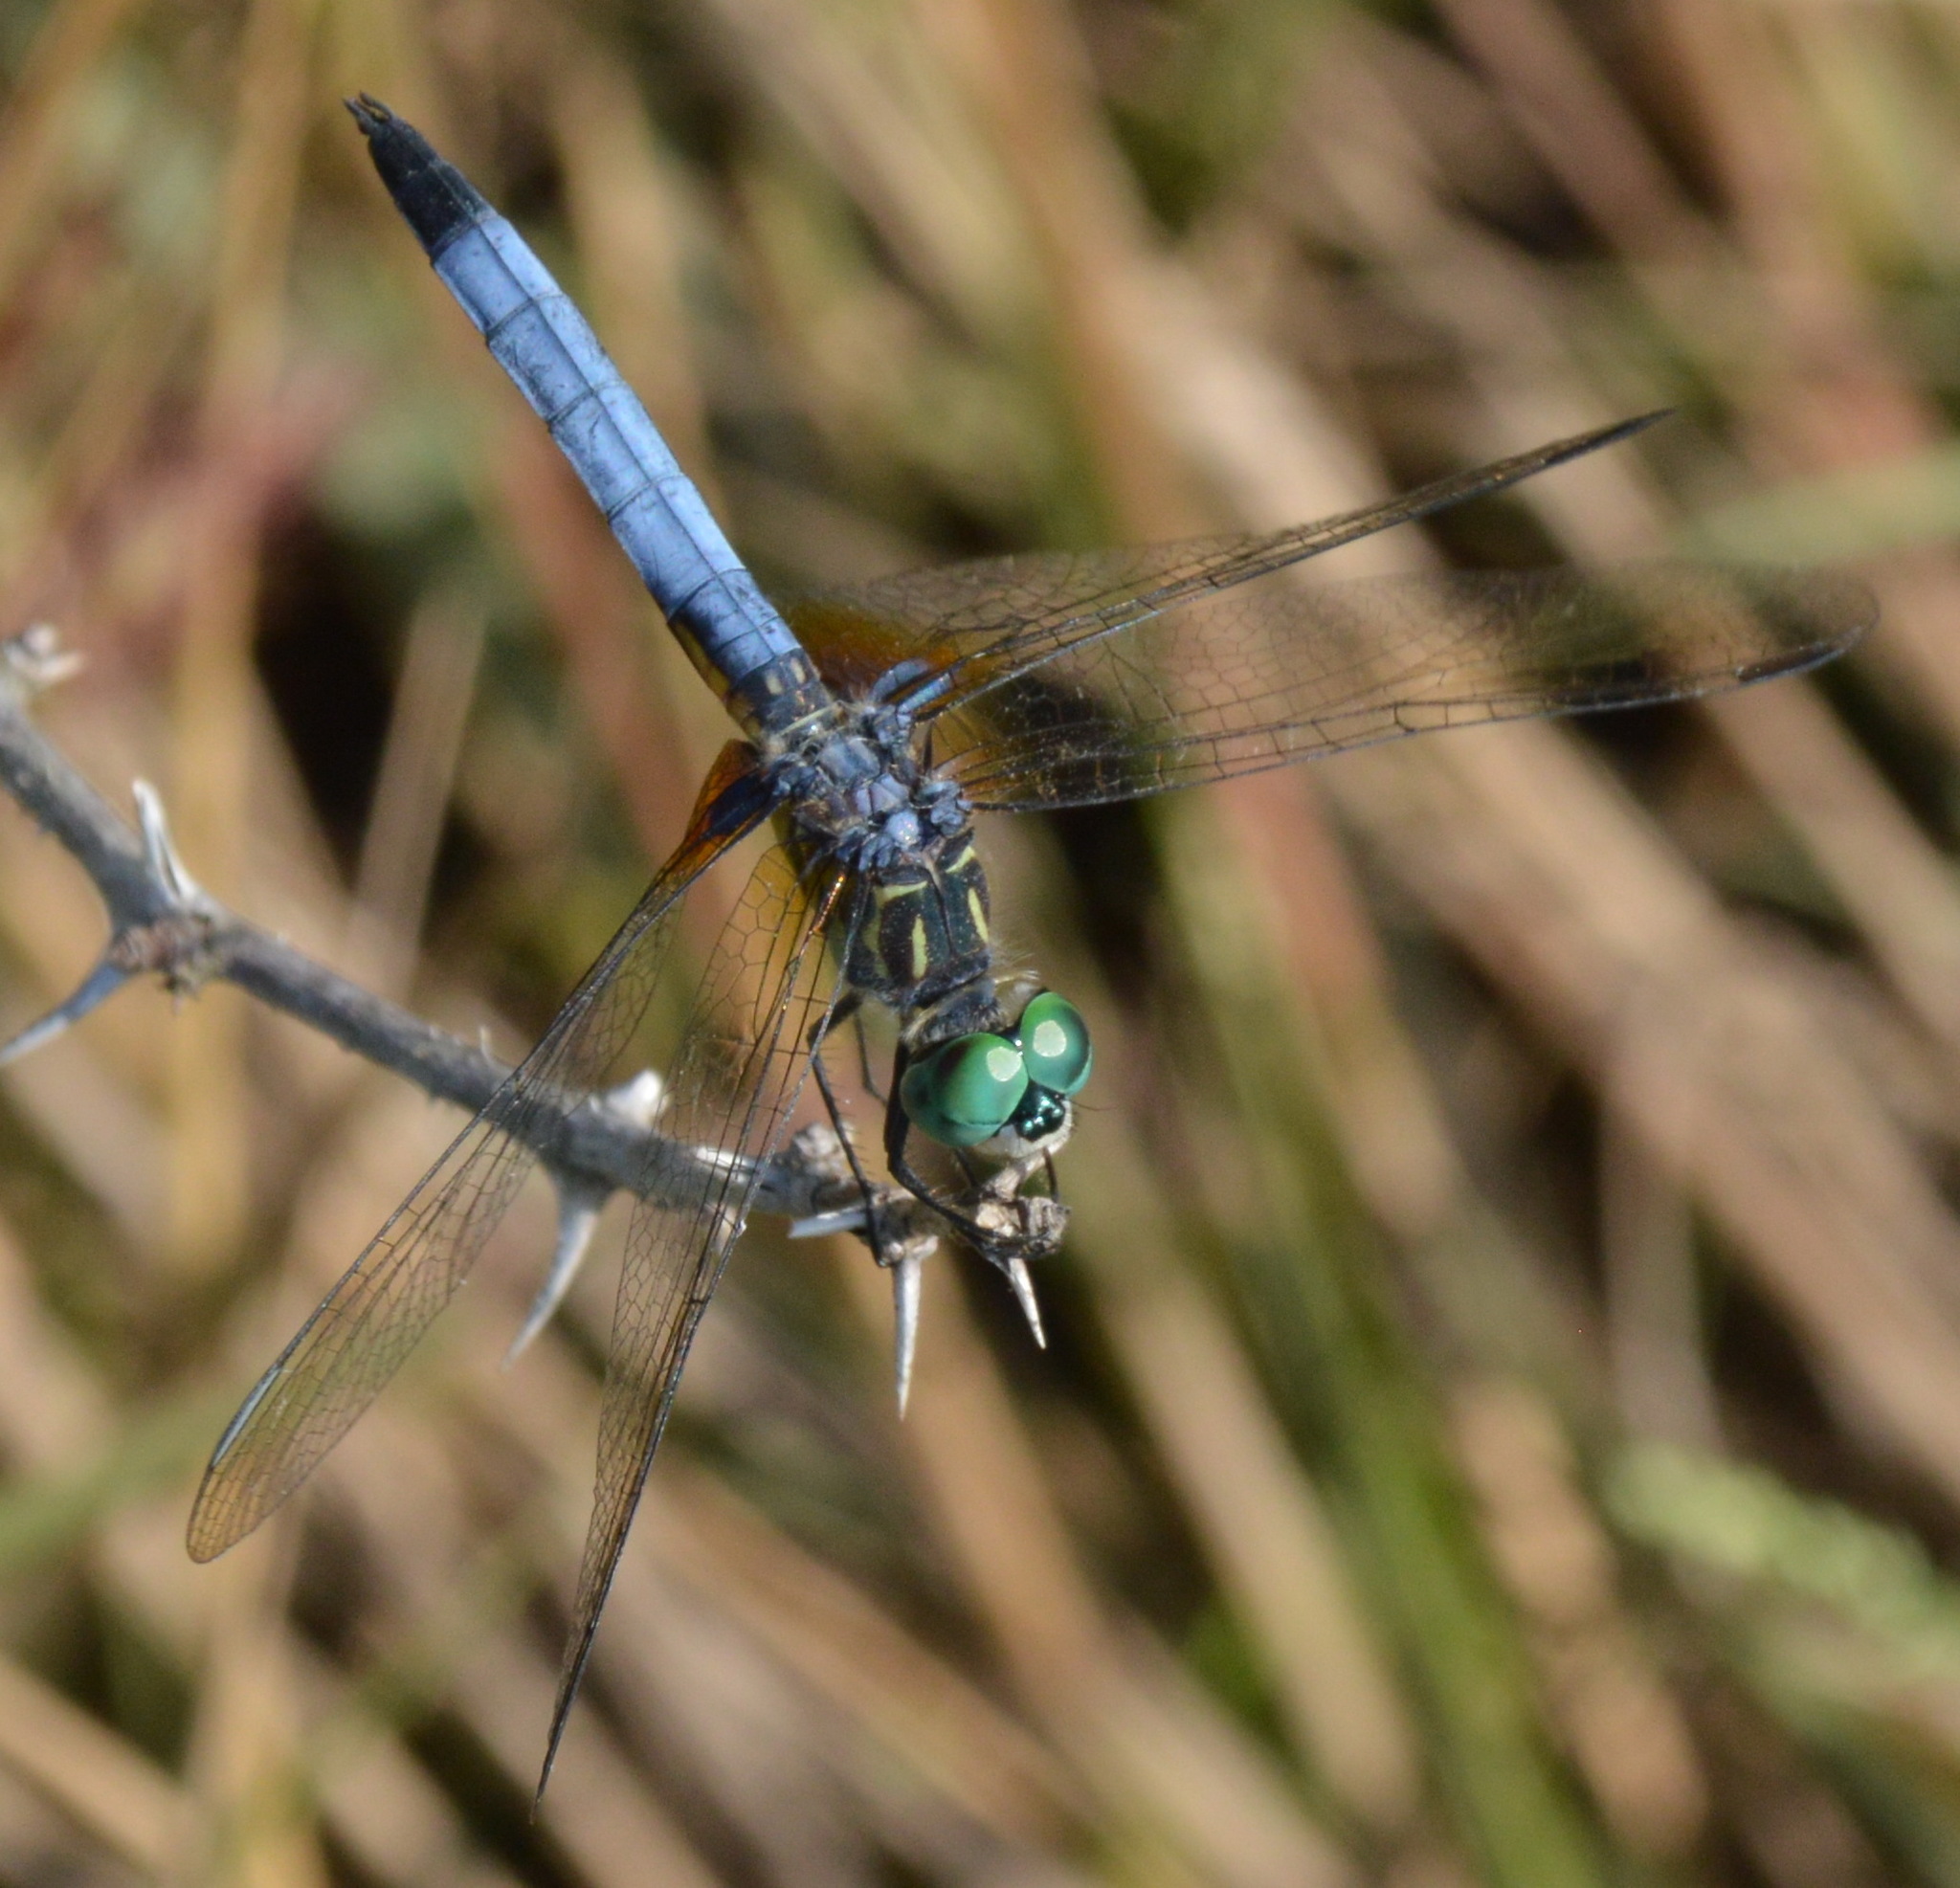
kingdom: Animalia
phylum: Arthropoda
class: Insecta
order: Odonata
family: Libellulidae
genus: Pachydiplax
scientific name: Pachydiplax longipennis
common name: Blue dasher
